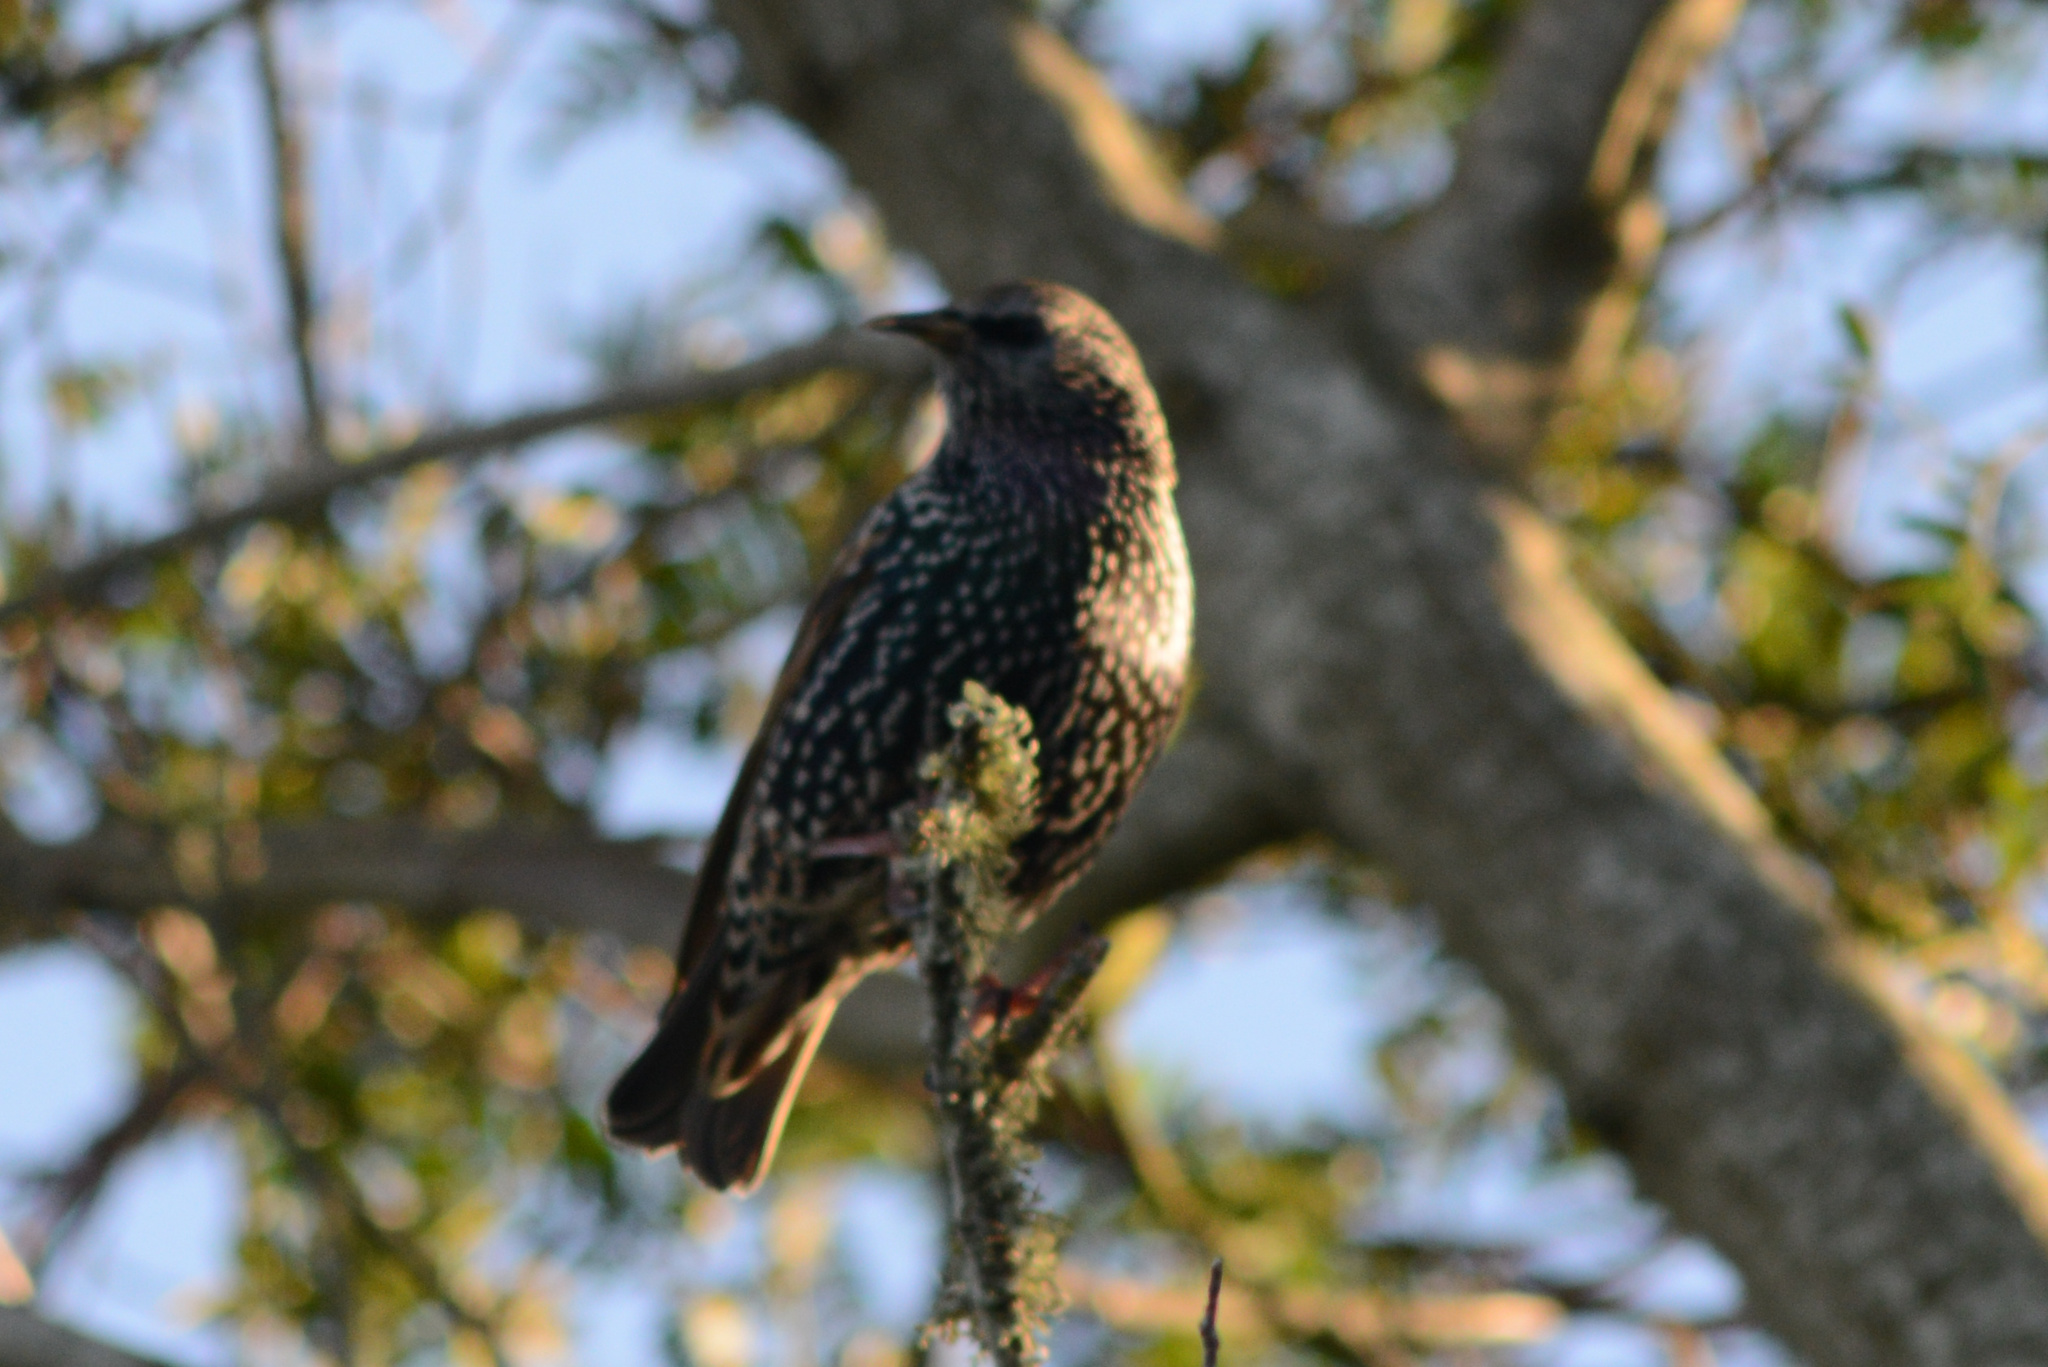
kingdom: Animalia
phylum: Chordata
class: Aves
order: Passeriformes
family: Sturnidae
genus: Sturnus
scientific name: Sturnus vulgaris
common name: Common starling
